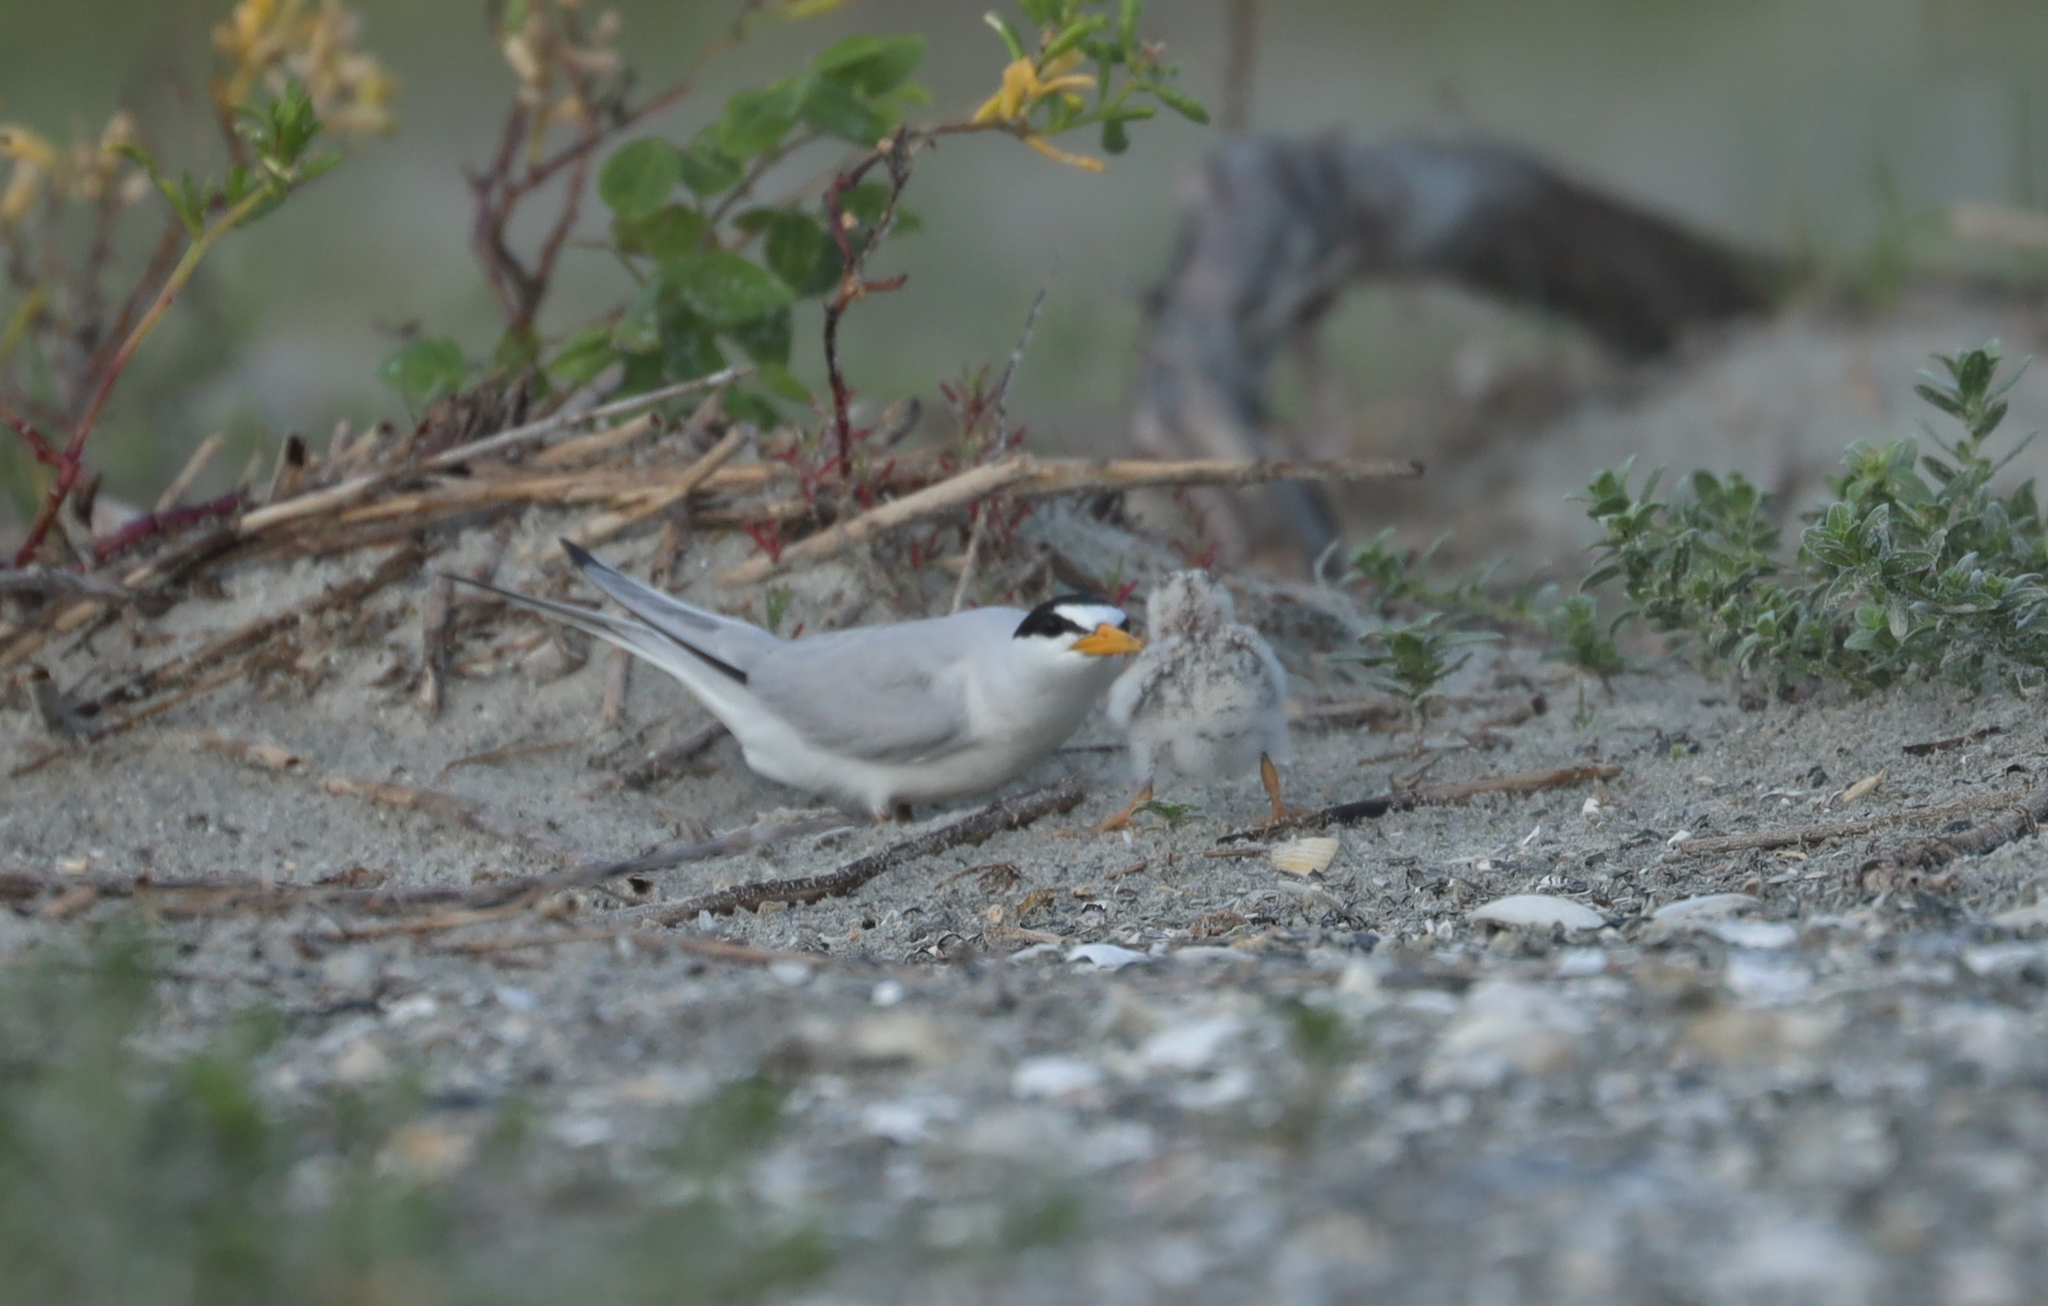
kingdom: Animalia
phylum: Chordata
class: Aves
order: Charadriiformes
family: Laridae
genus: Sternula
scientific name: Sternula antillarum
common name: Least tern
